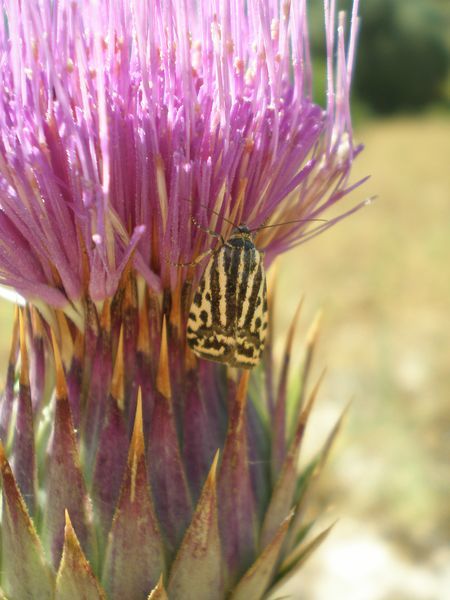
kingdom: Animalia
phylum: Arthropoda
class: Insecta
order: Lepidoptera
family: Noctuidae
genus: Acontia
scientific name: Acontia trabealis
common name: Spotted sulphur
